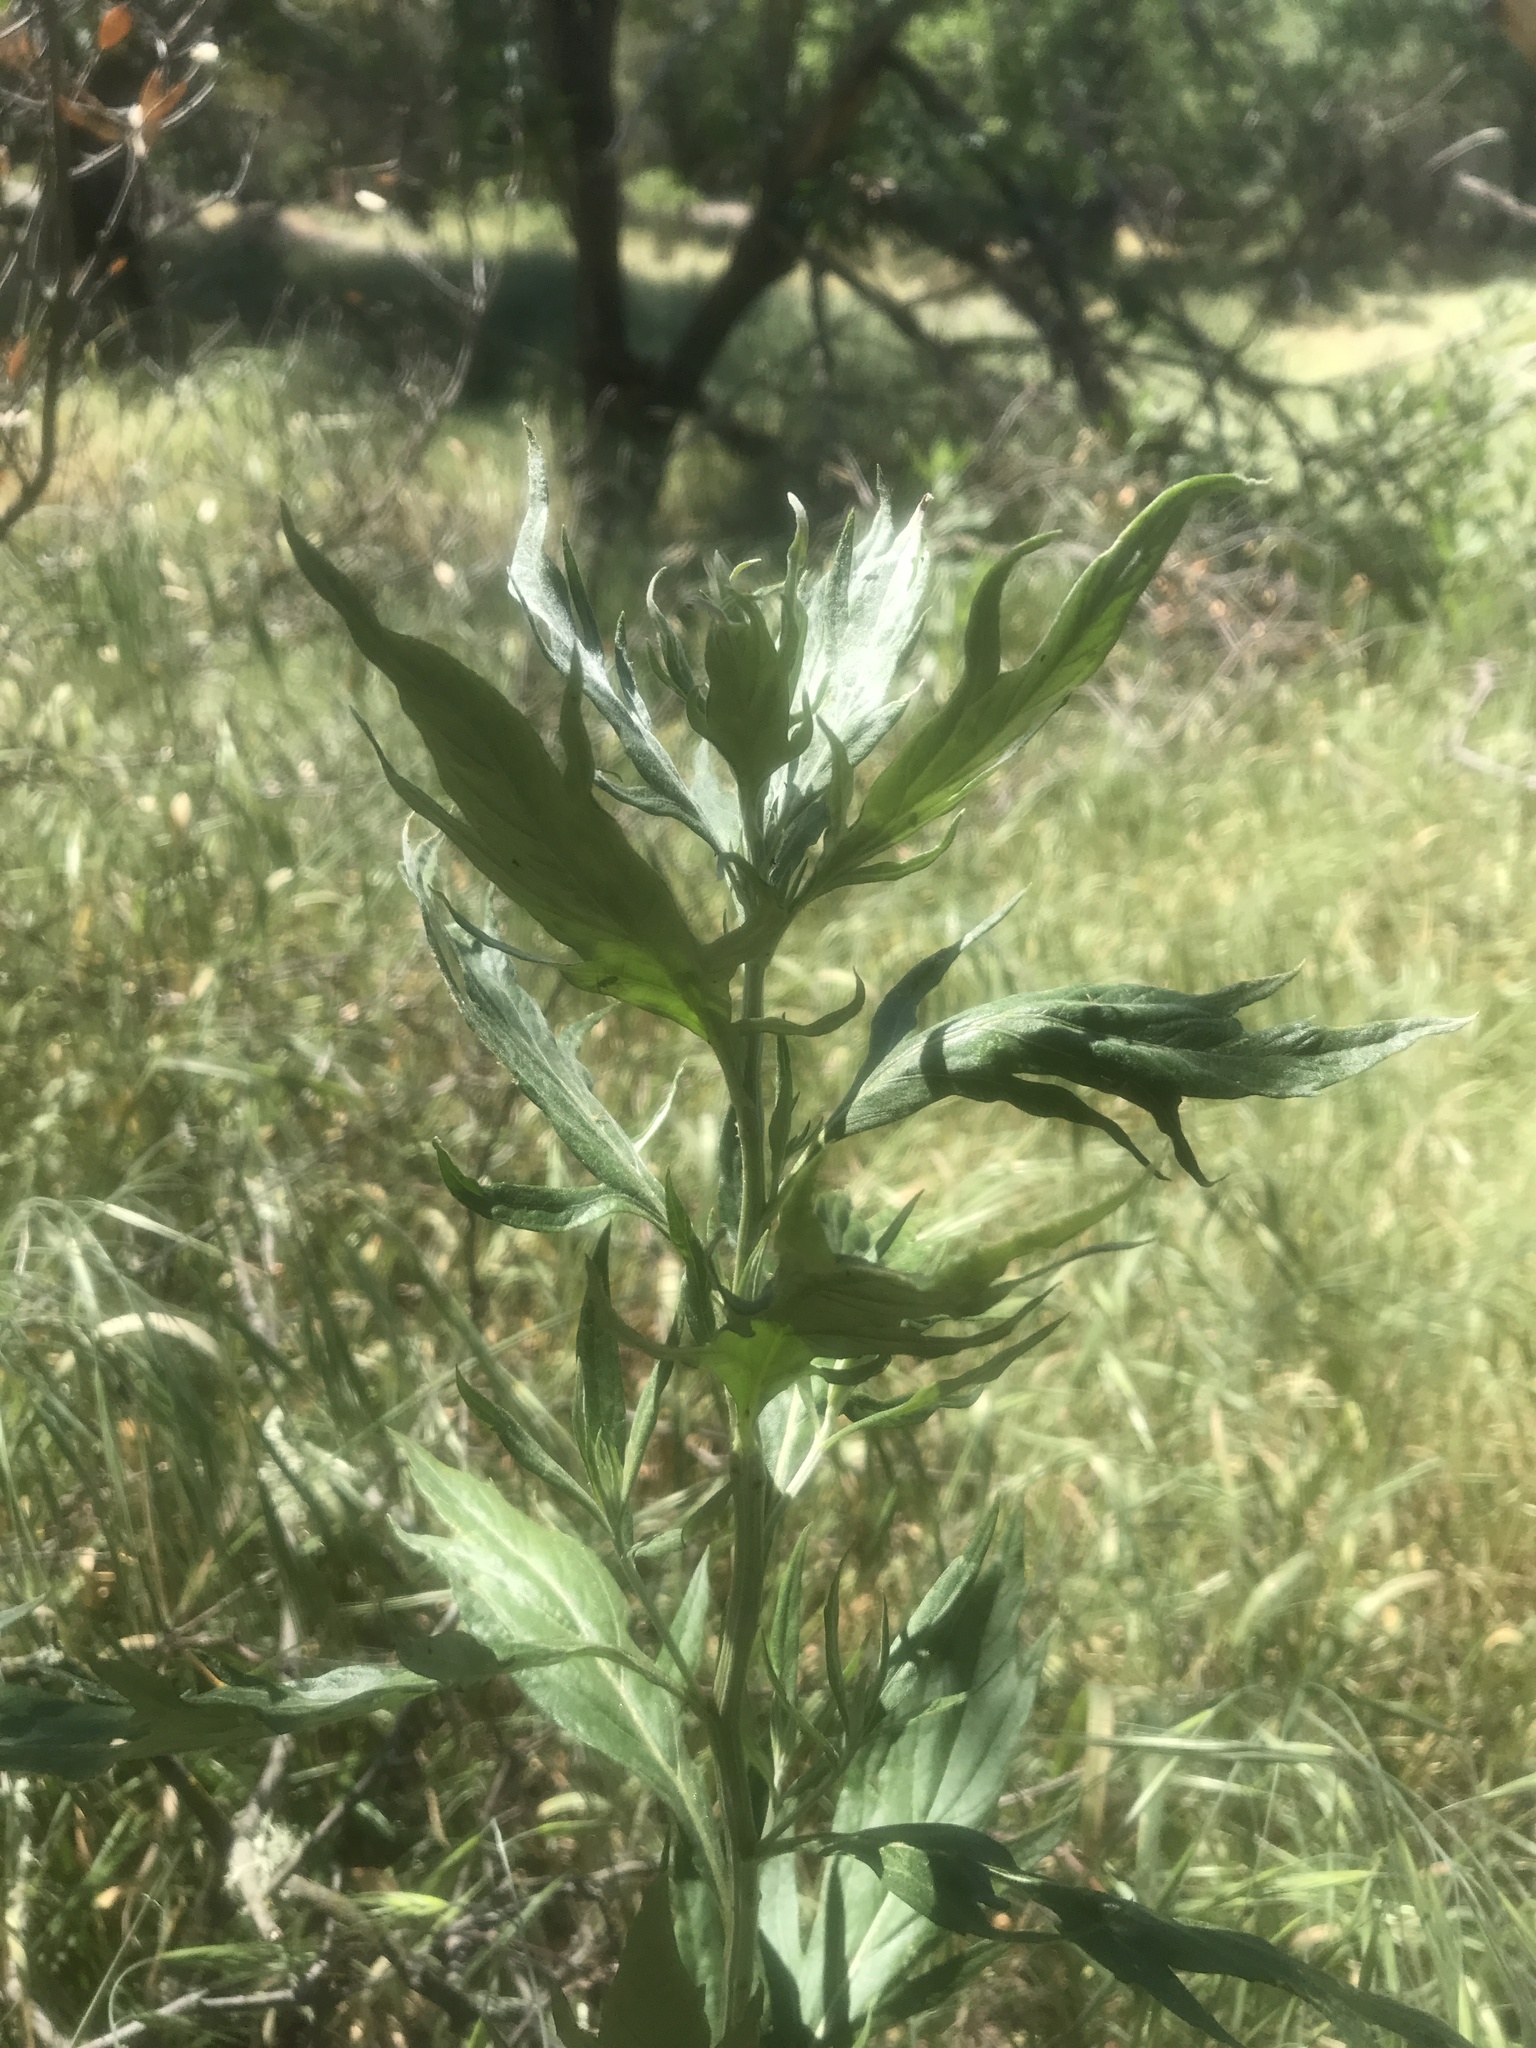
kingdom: Plantae
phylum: Tracheophyta
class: Magnoliopsida
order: Asterales
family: Asteraceae
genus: Artemisia
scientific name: Artemisia douglasiana
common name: Northwest mugwort
